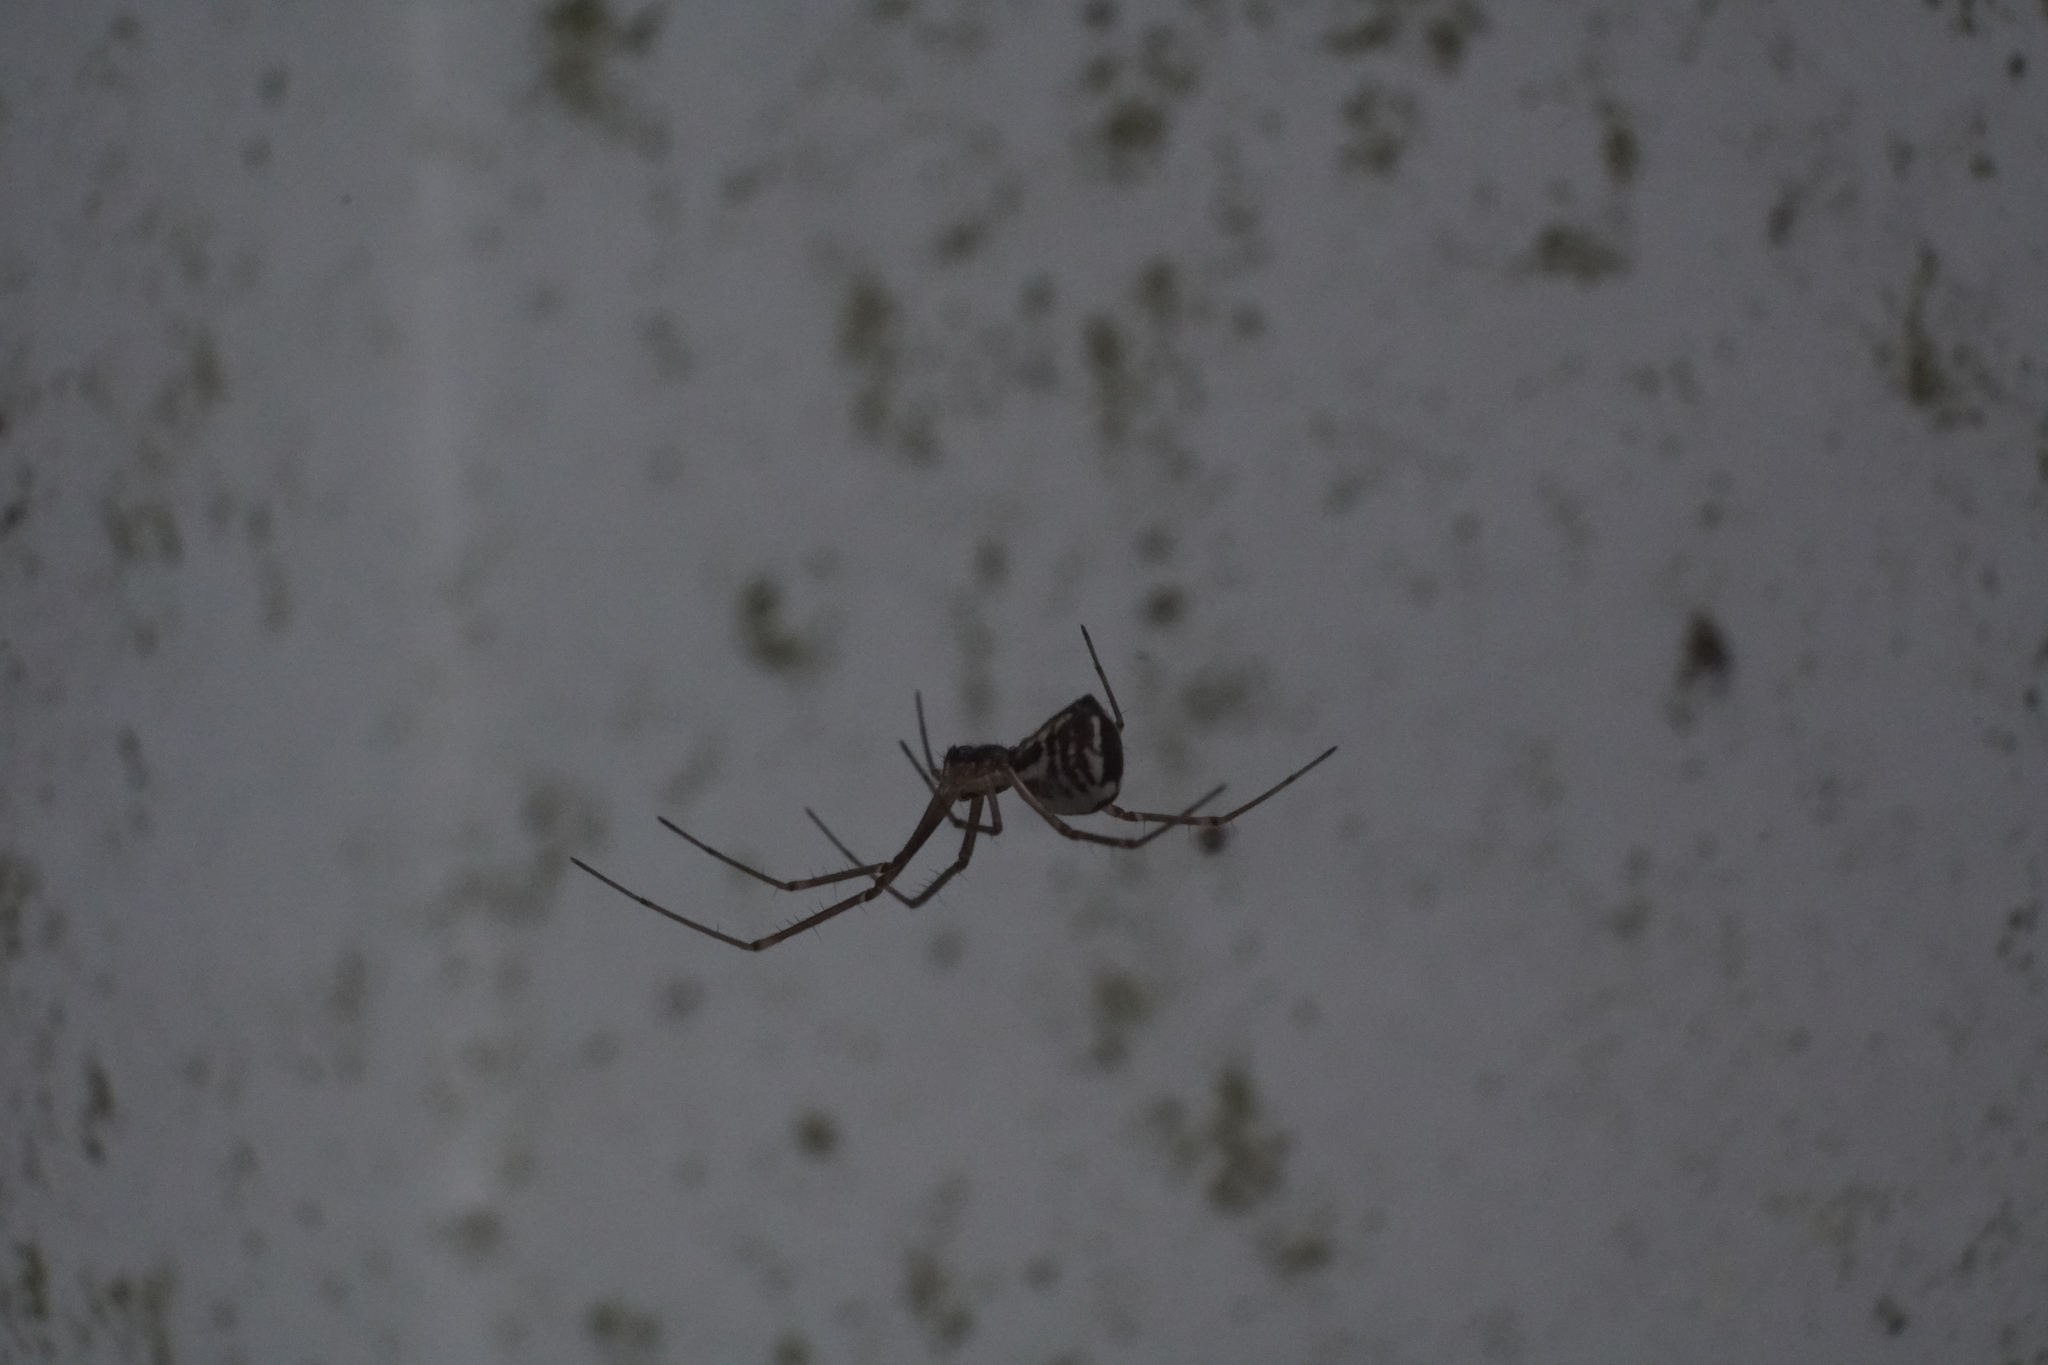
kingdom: Animalia
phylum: Arthropoda
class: Arachnida
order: Araneae
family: Linyphiidae
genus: Neriene
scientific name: Neriene radiata
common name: Filmy dome spider
